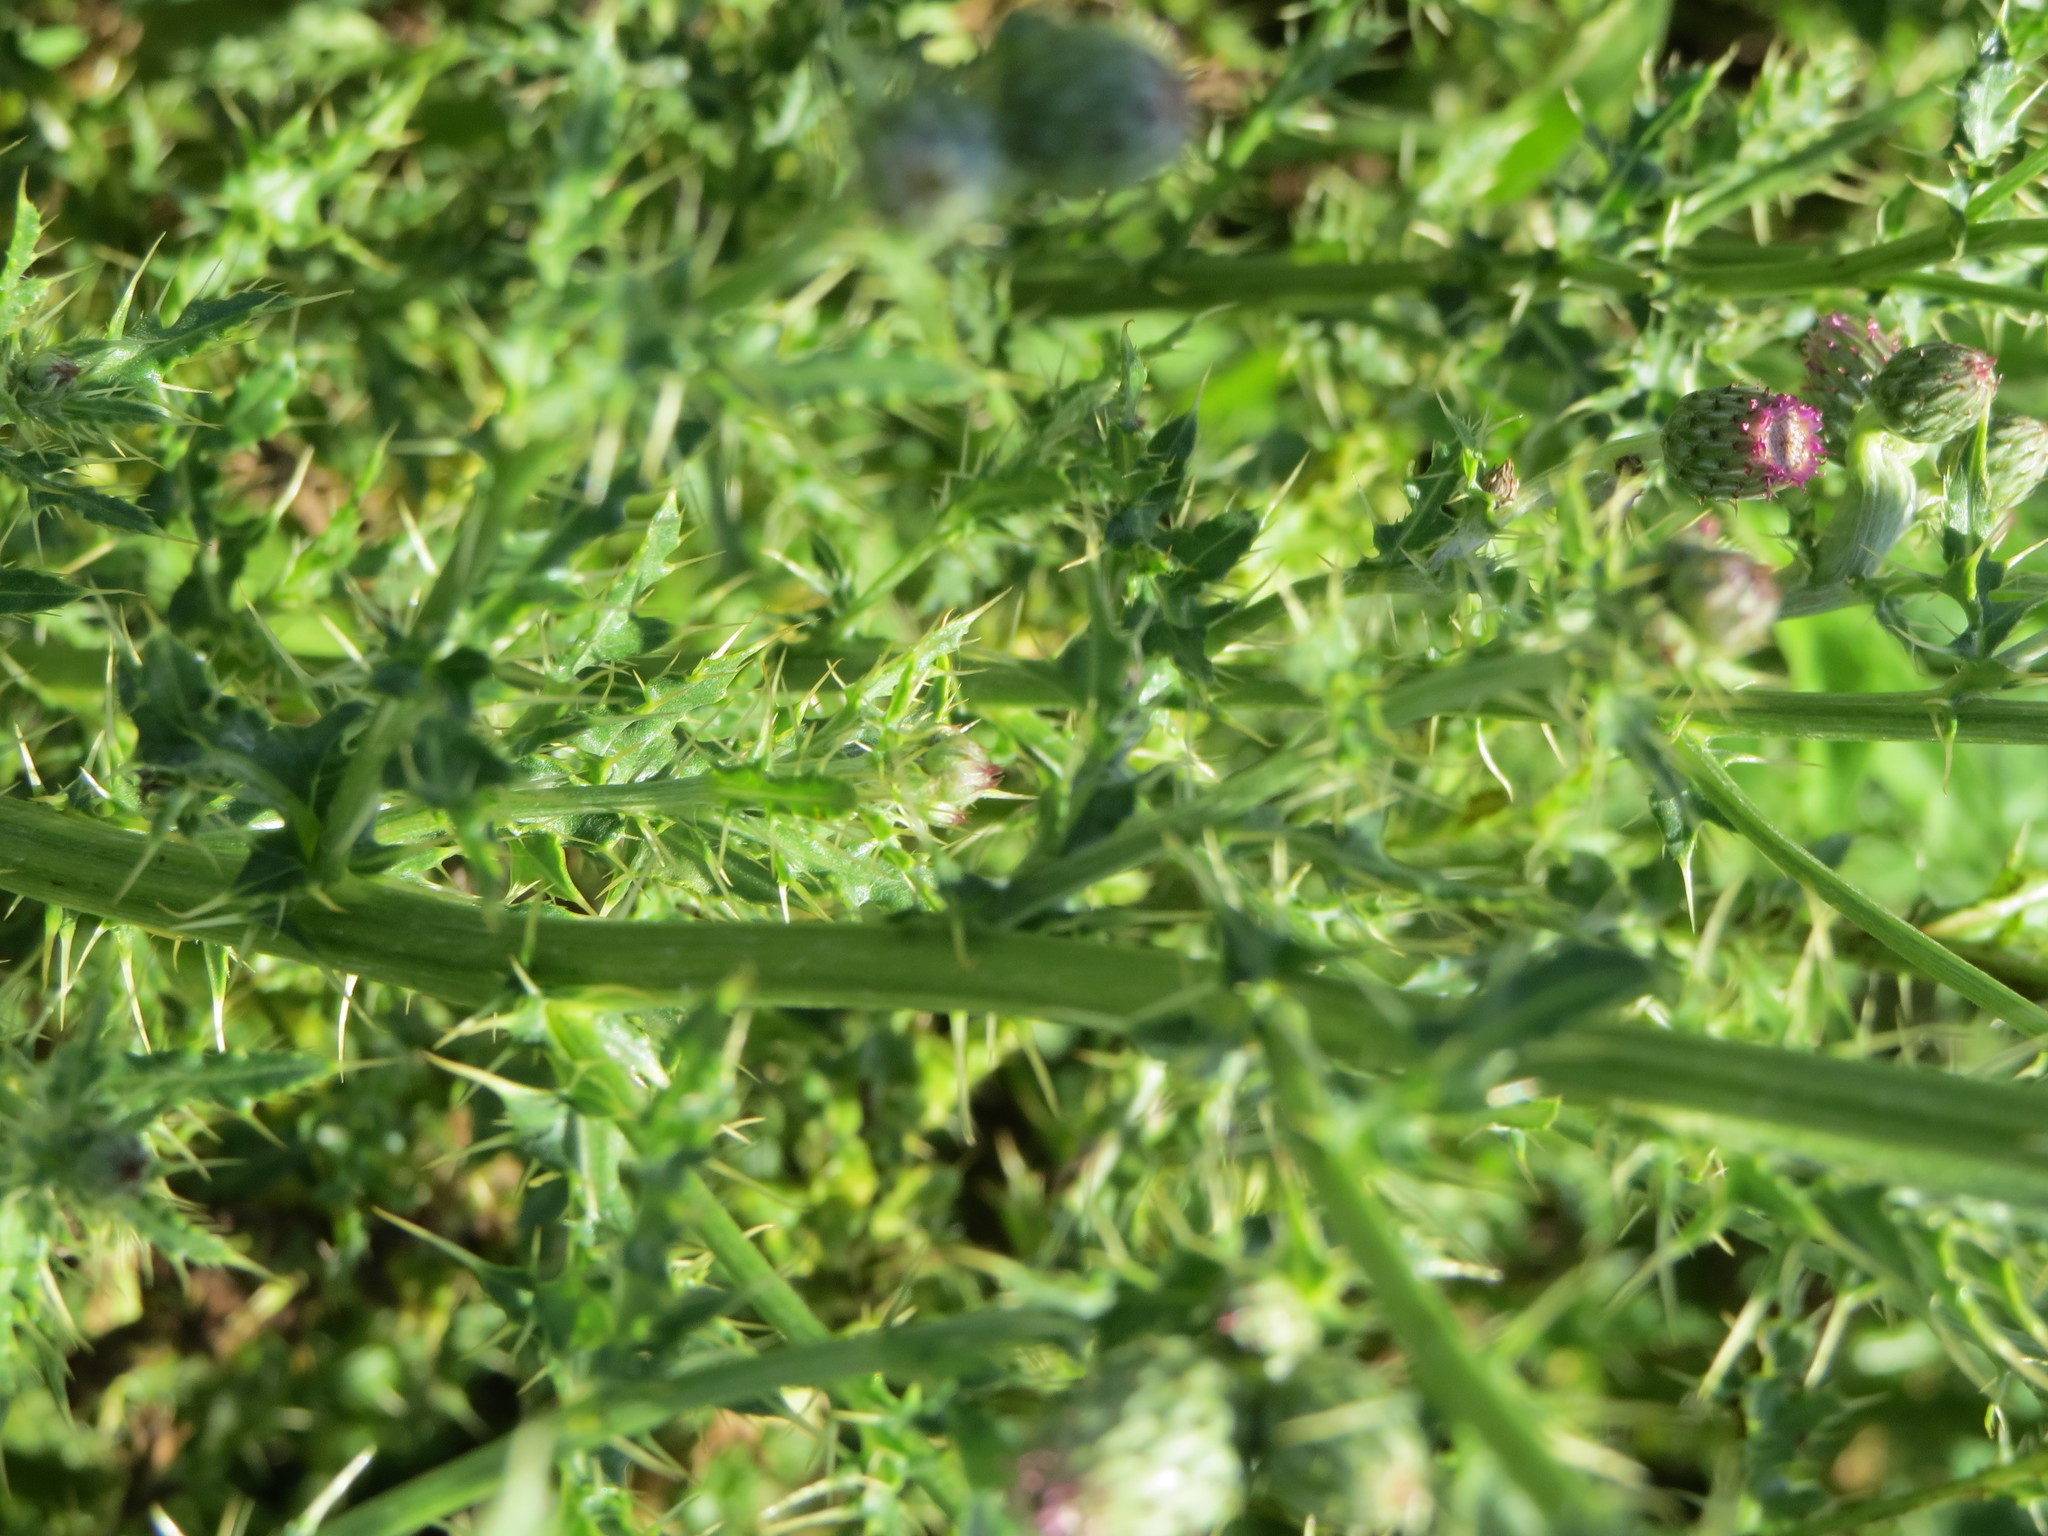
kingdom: Plantae
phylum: Tracheophyta
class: Magnoliopsida
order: Asterales
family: Asteraceae
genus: Cirsium
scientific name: Cirsium arvense
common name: Creeping thistle
